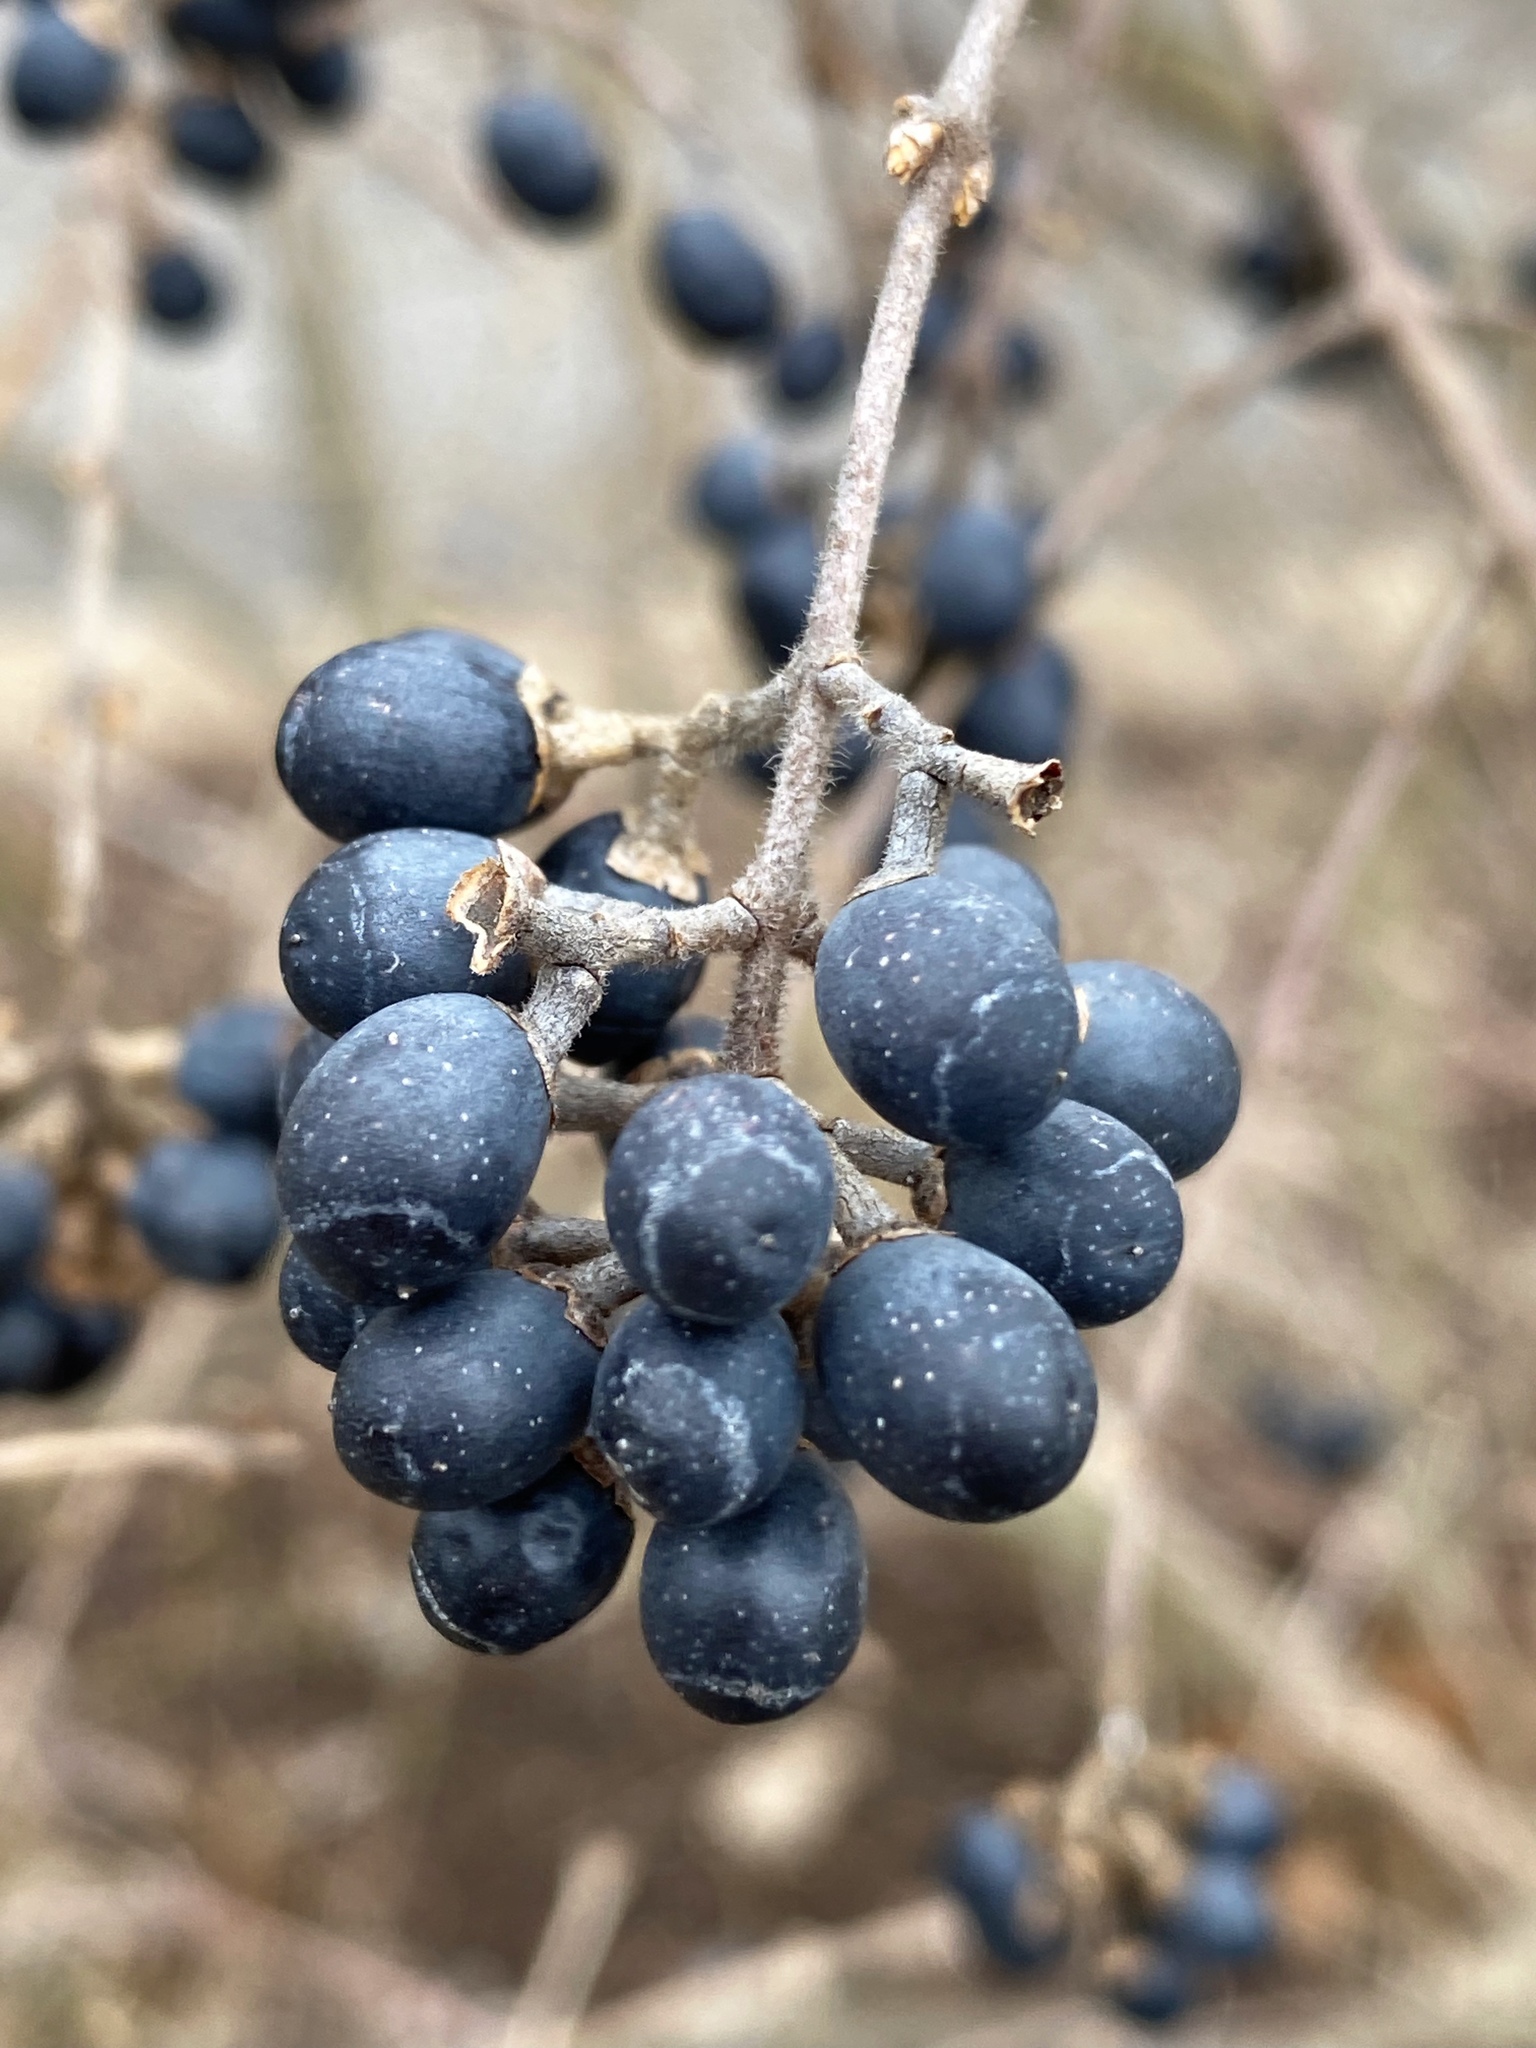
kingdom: Plantae
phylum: Tracheophyta
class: Magnoliopsida
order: Lamiales
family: Oleaceae
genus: Ligustrum
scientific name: Ligustrum obtusifolium
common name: Border privet
